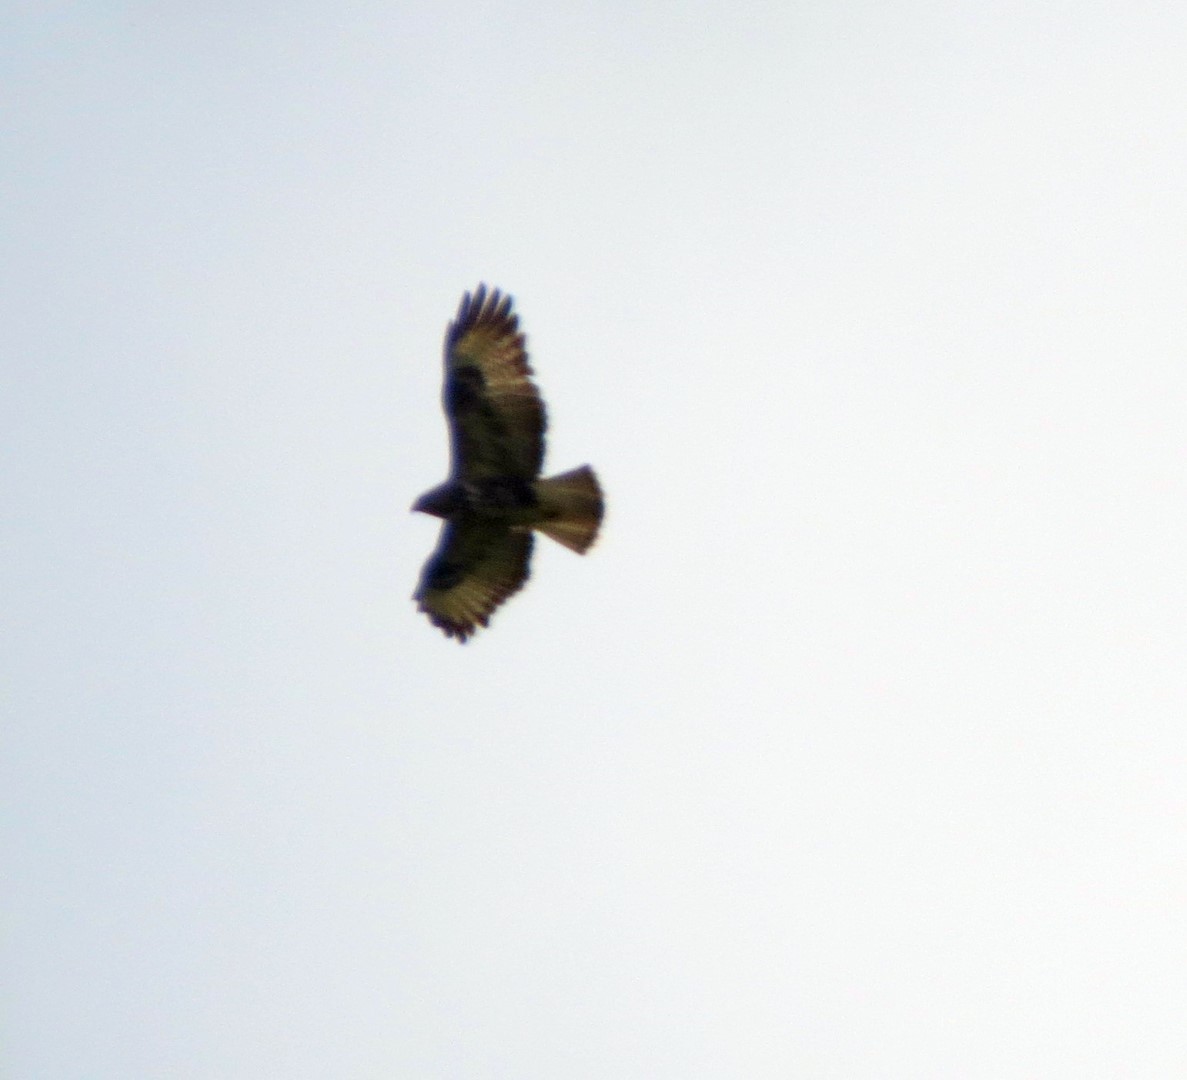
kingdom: Animalia
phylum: Chordata
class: Aves
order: Accipitriformes
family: Accipitridae
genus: Buteo
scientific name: Buteo buteo
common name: Common buzzard
